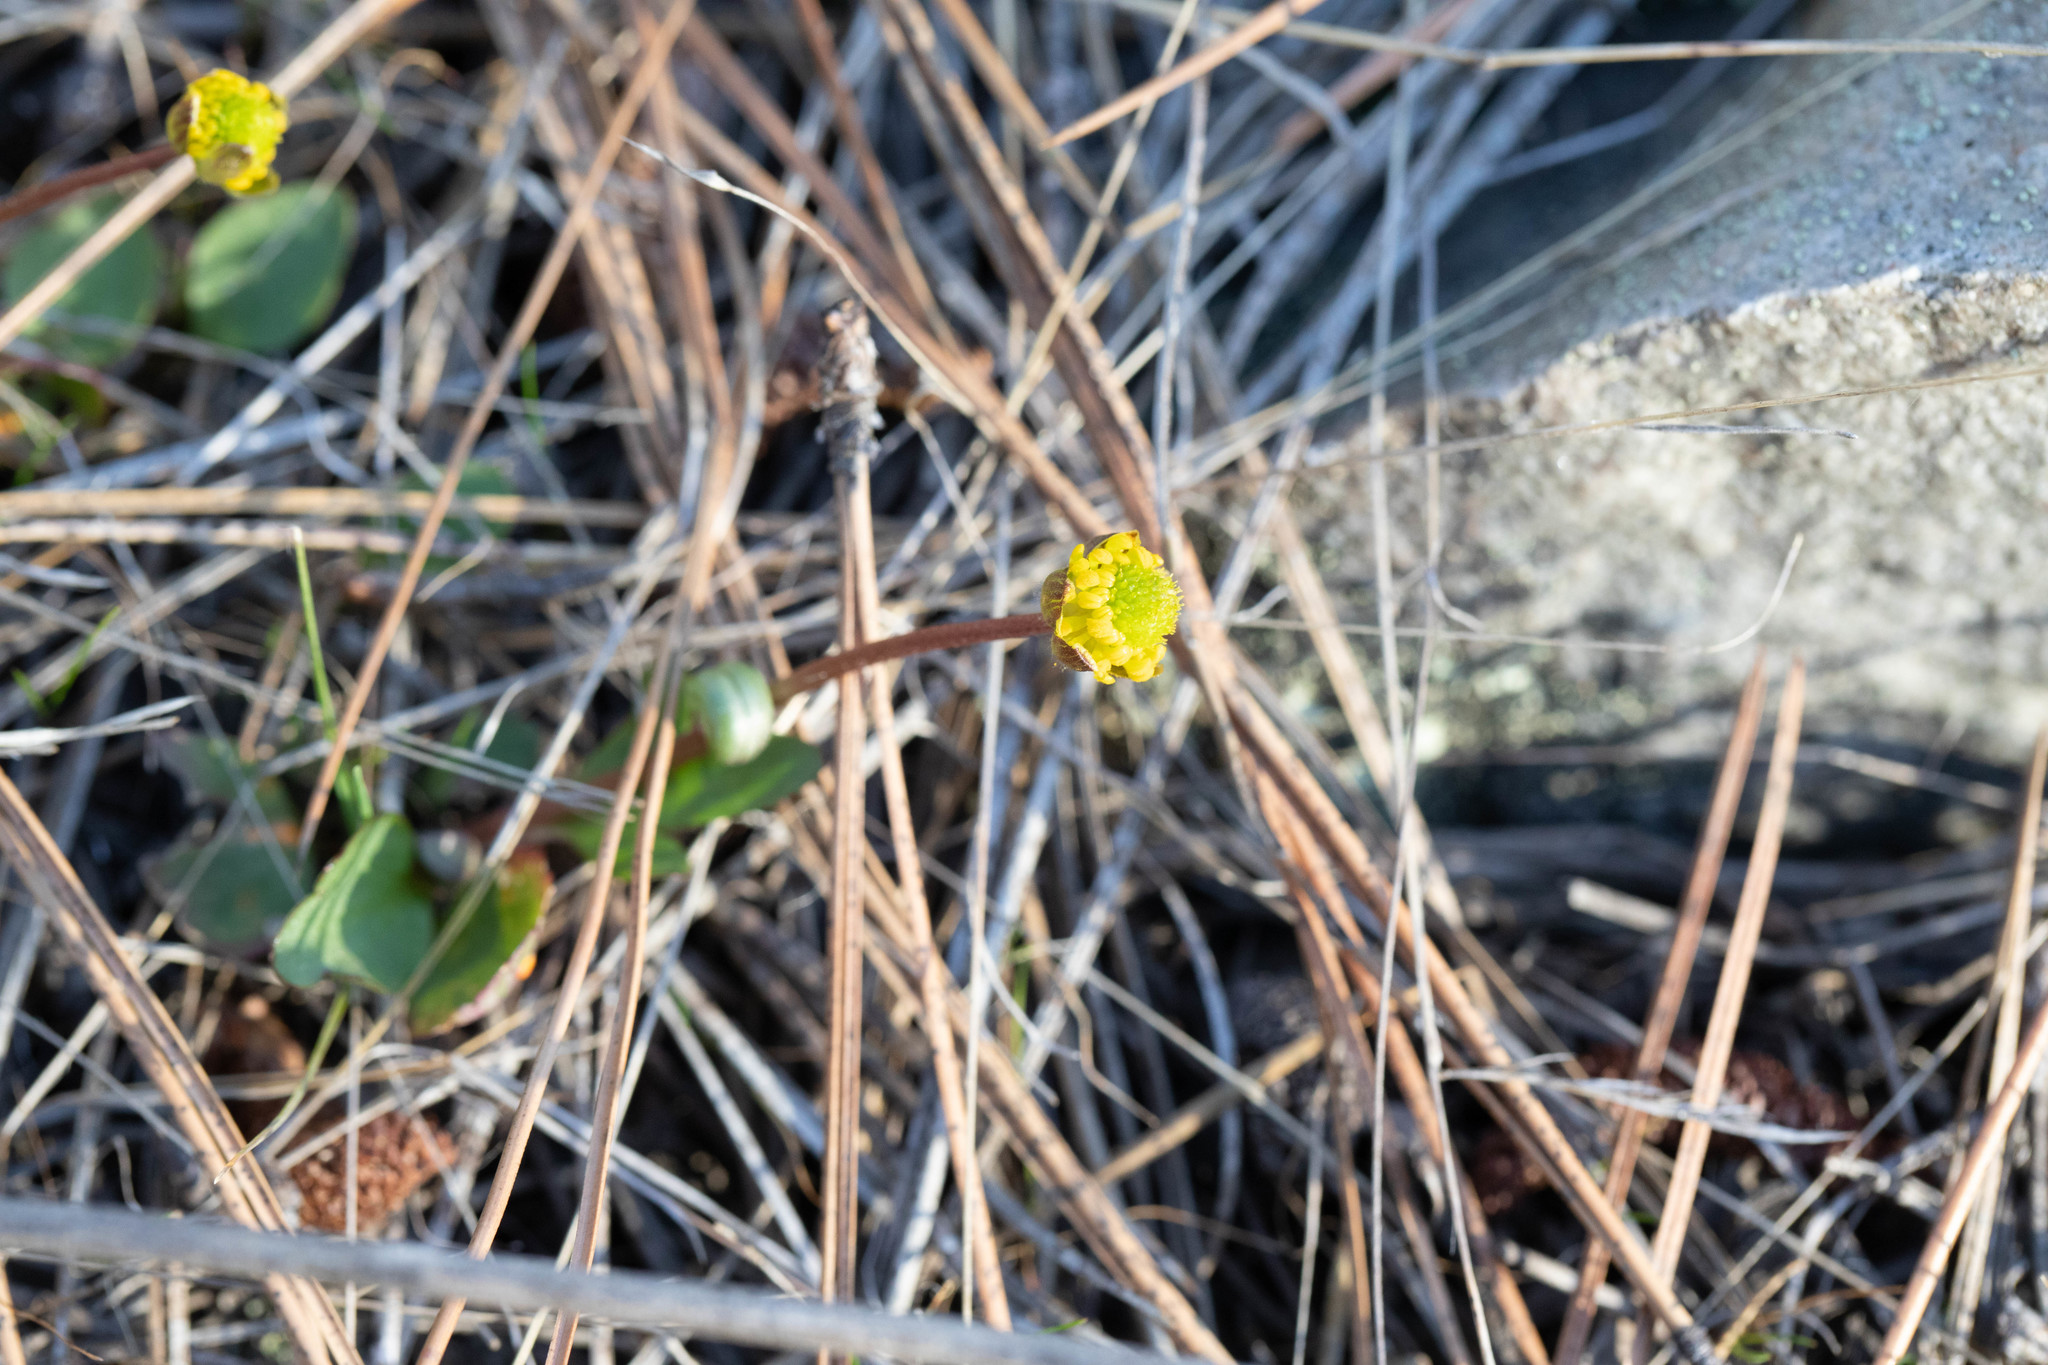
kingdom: Plantae
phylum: Tracheophyta
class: Magnoliopsida
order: Ranunculales
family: Ranunculaceae
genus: Ranunculus
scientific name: Ranunculus glaberrimus
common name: Sagebrush buttercup
